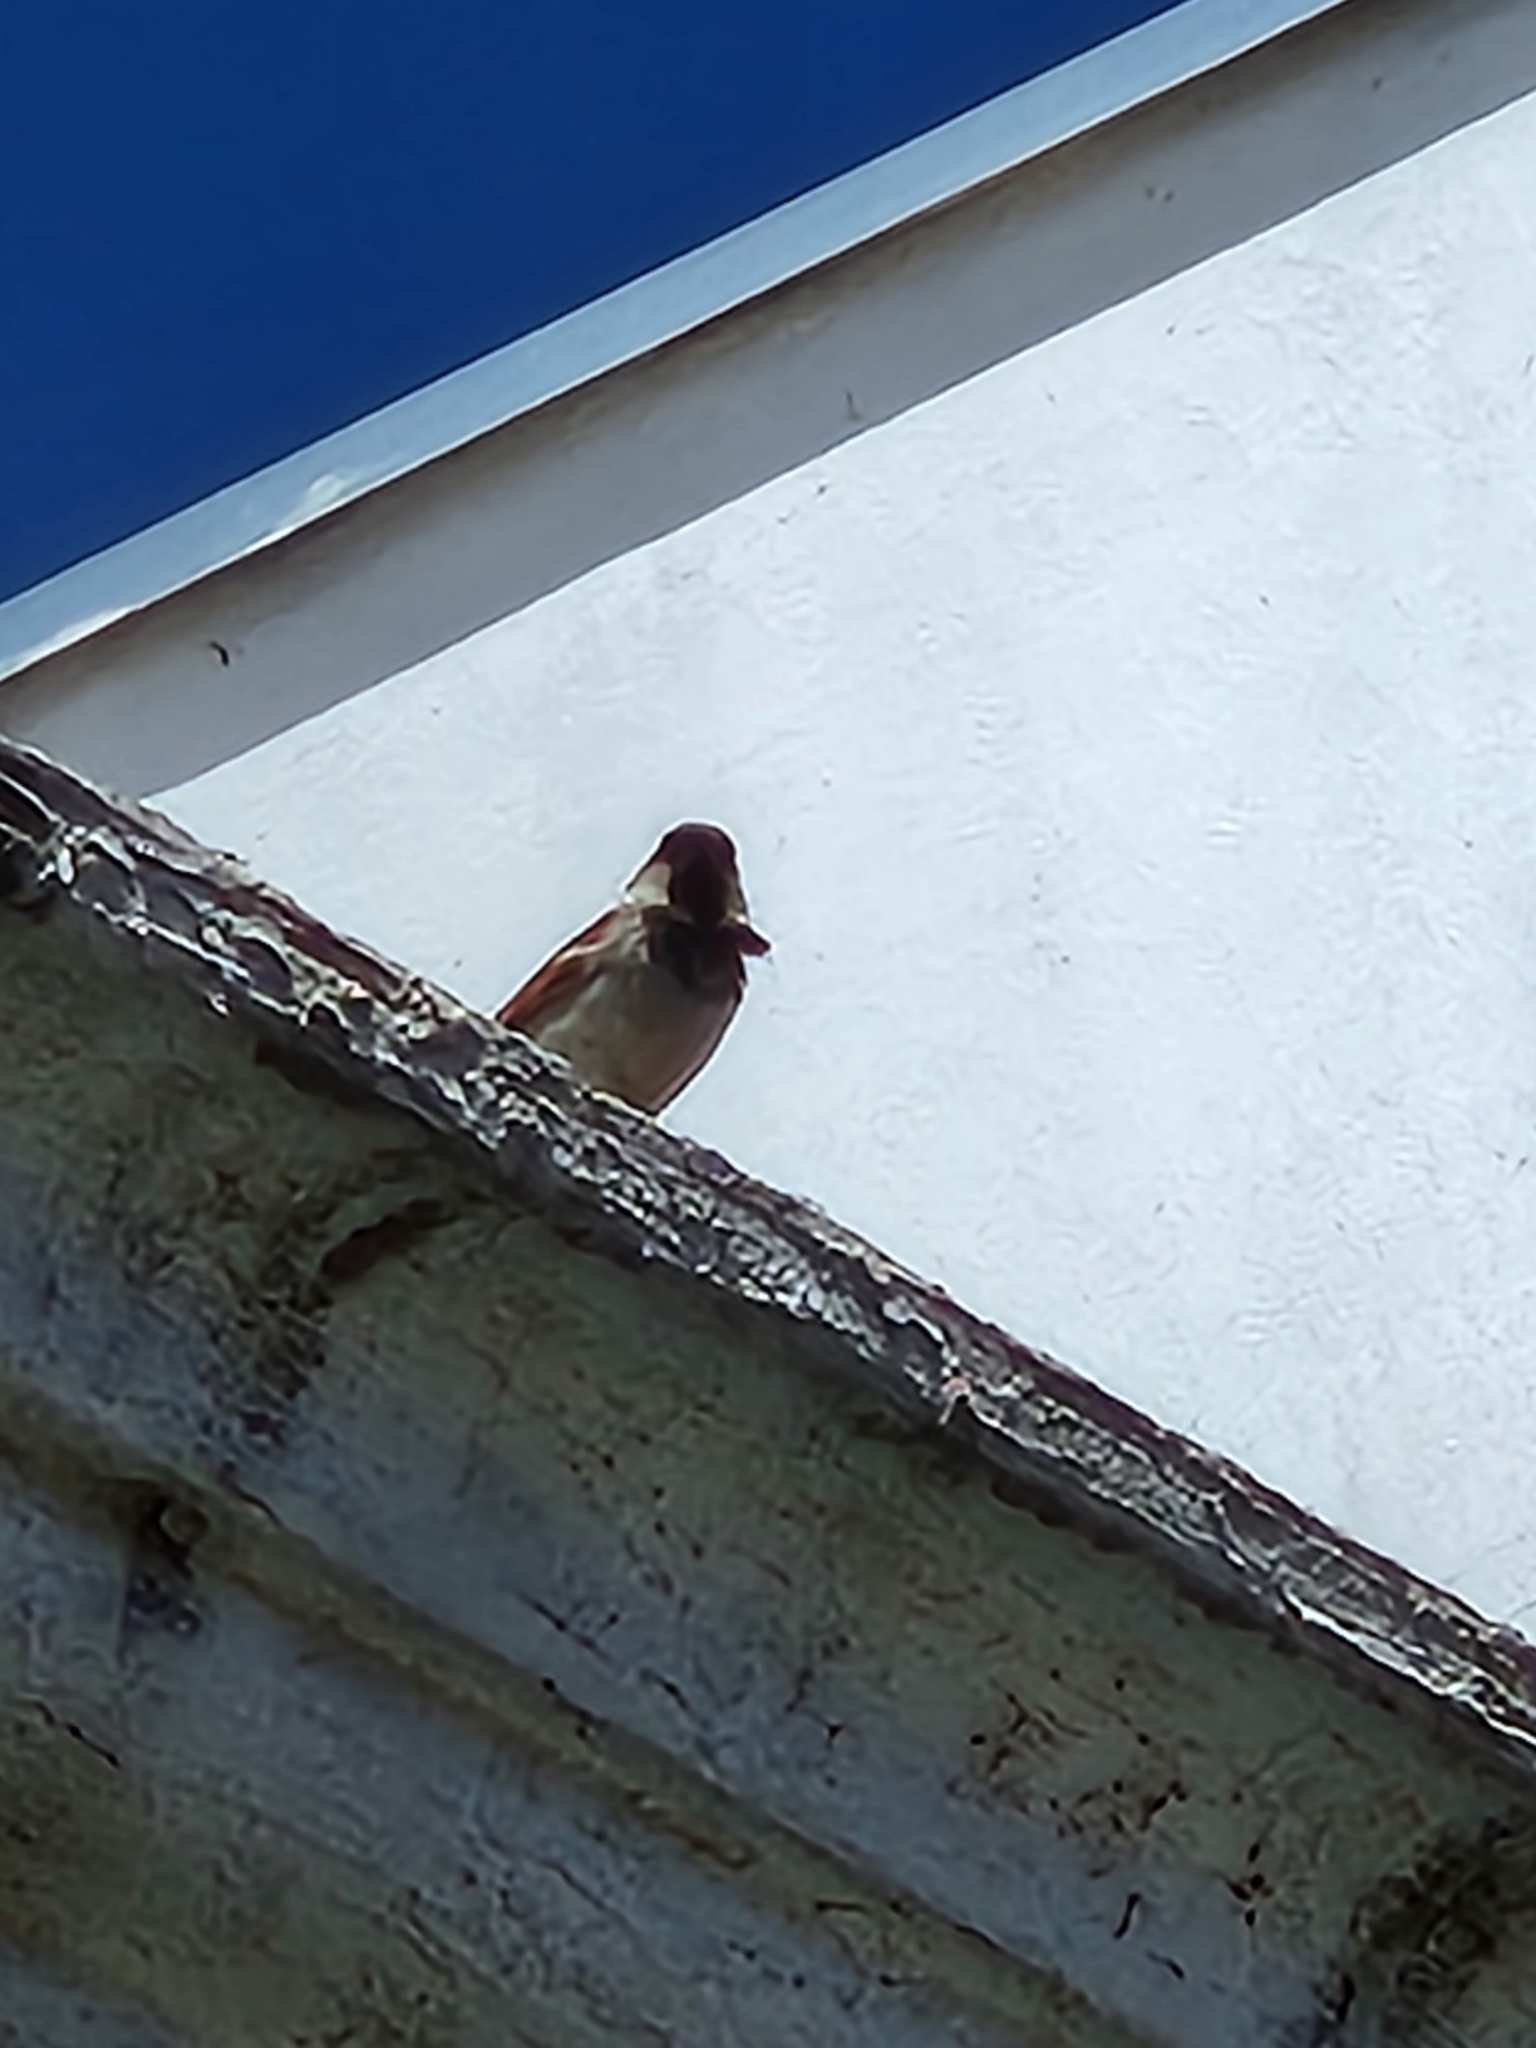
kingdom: Animalia
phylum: Chordata
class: Aves
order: Passeriformes
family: Passeridae
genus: Passer
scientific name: Passer domesticus
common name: House sparrow
